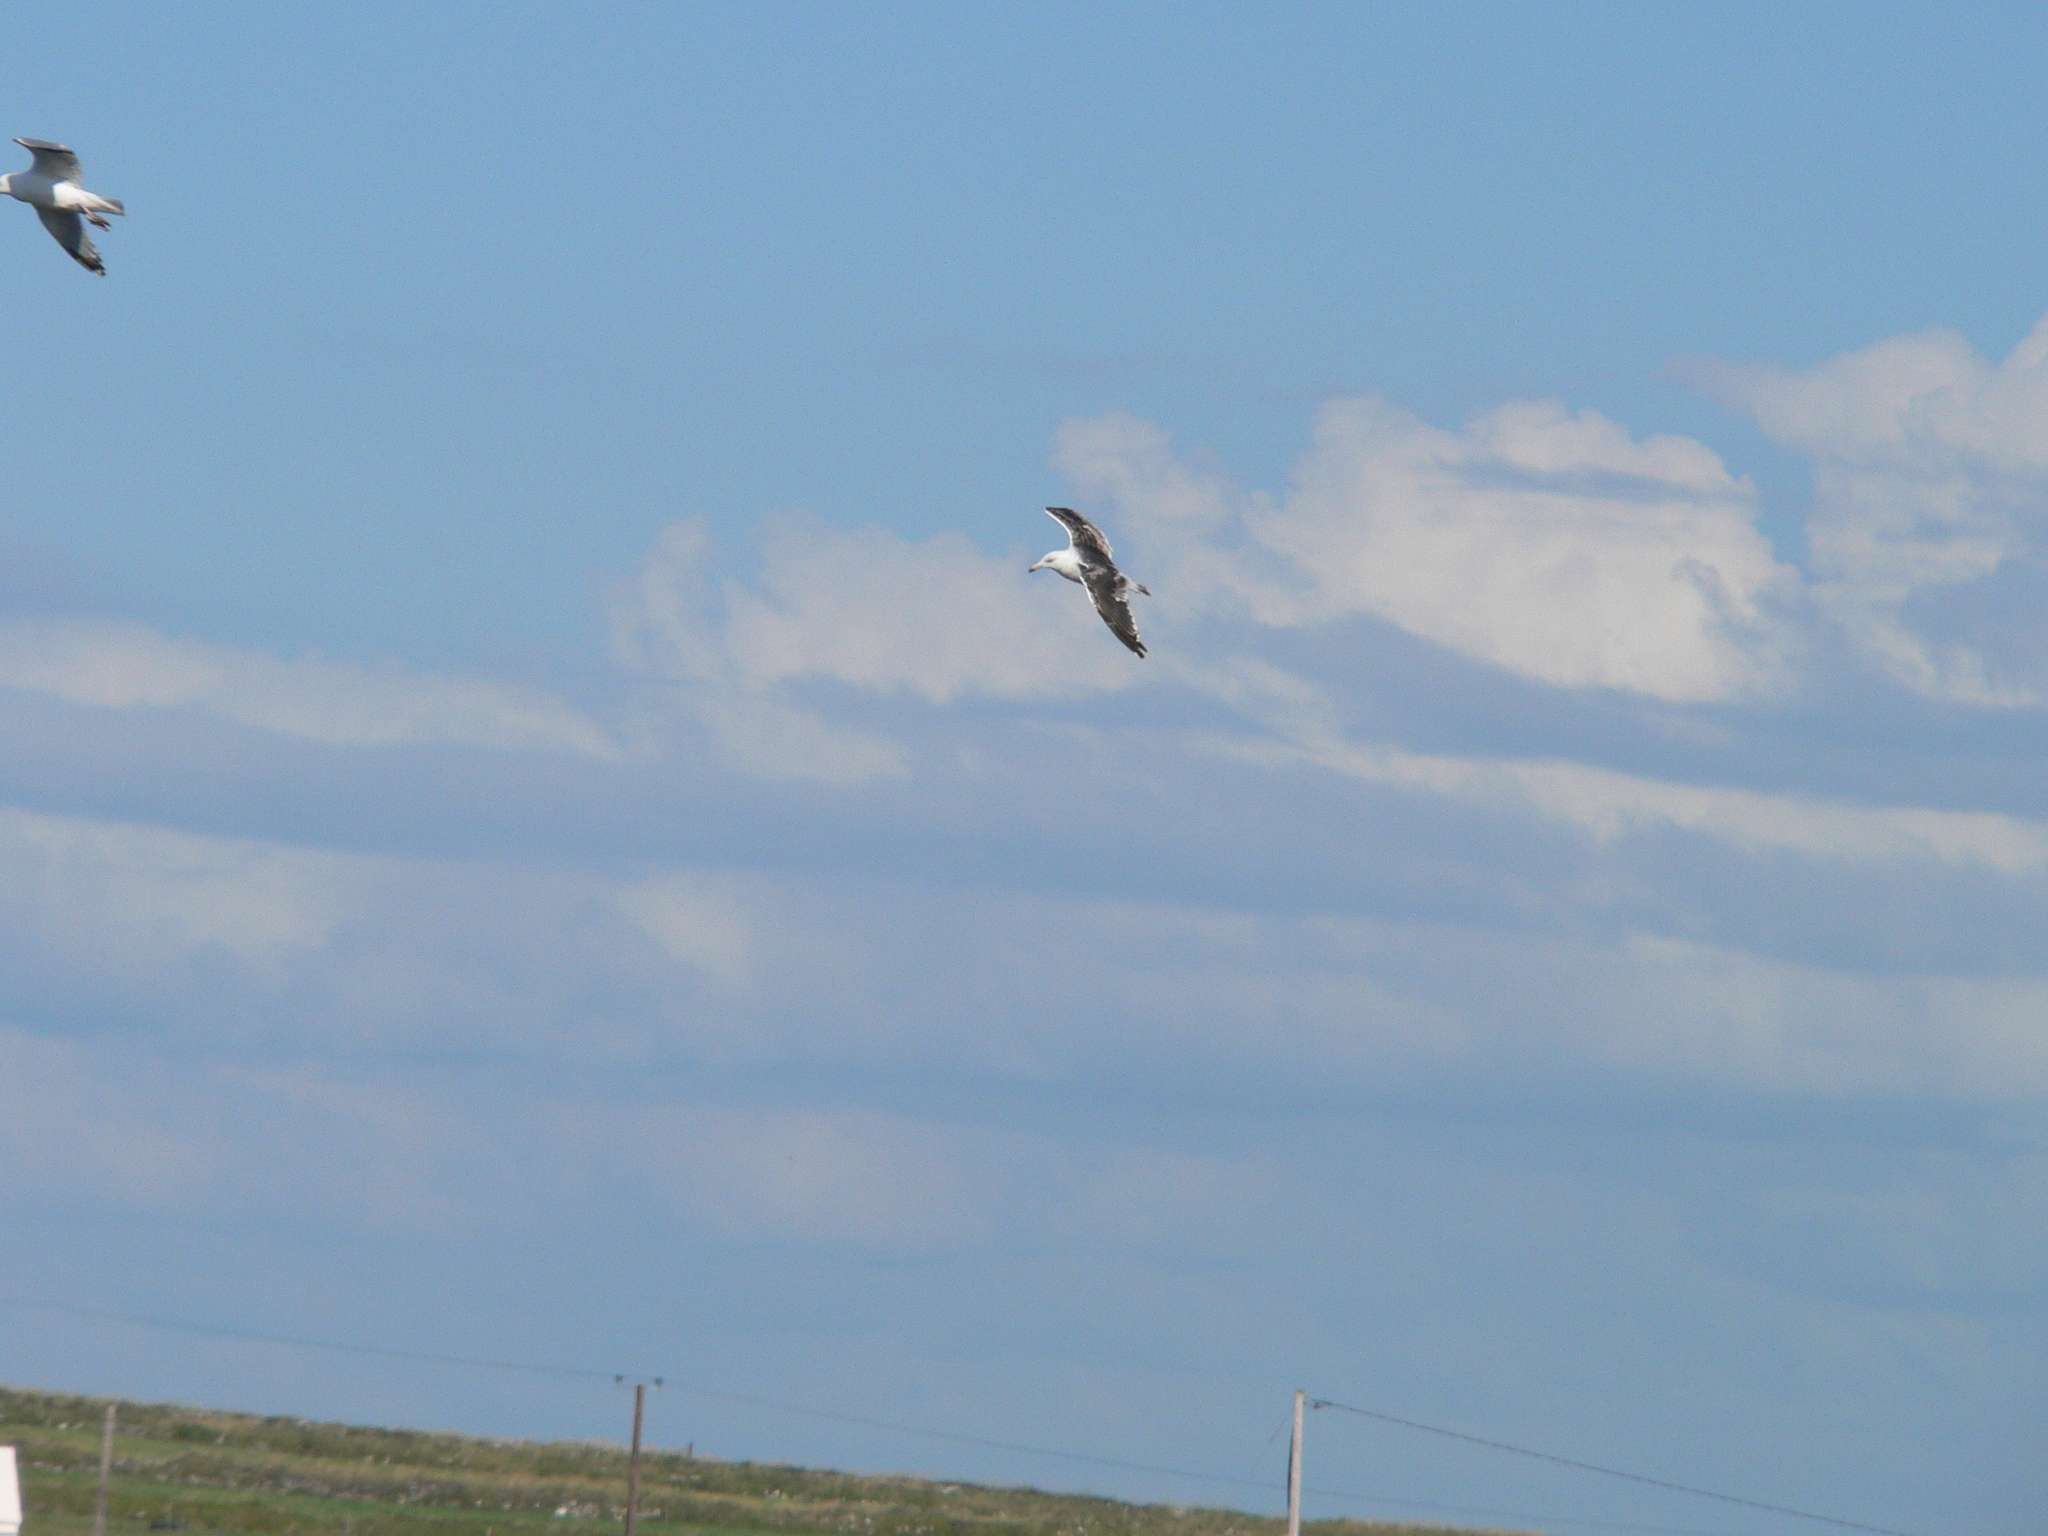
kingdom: Animalia
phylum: Chordata
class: Aves
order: Charadriiformes
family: Laridae
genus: Larus
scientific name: Larus fuscus
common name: Lesser black-backed gull
